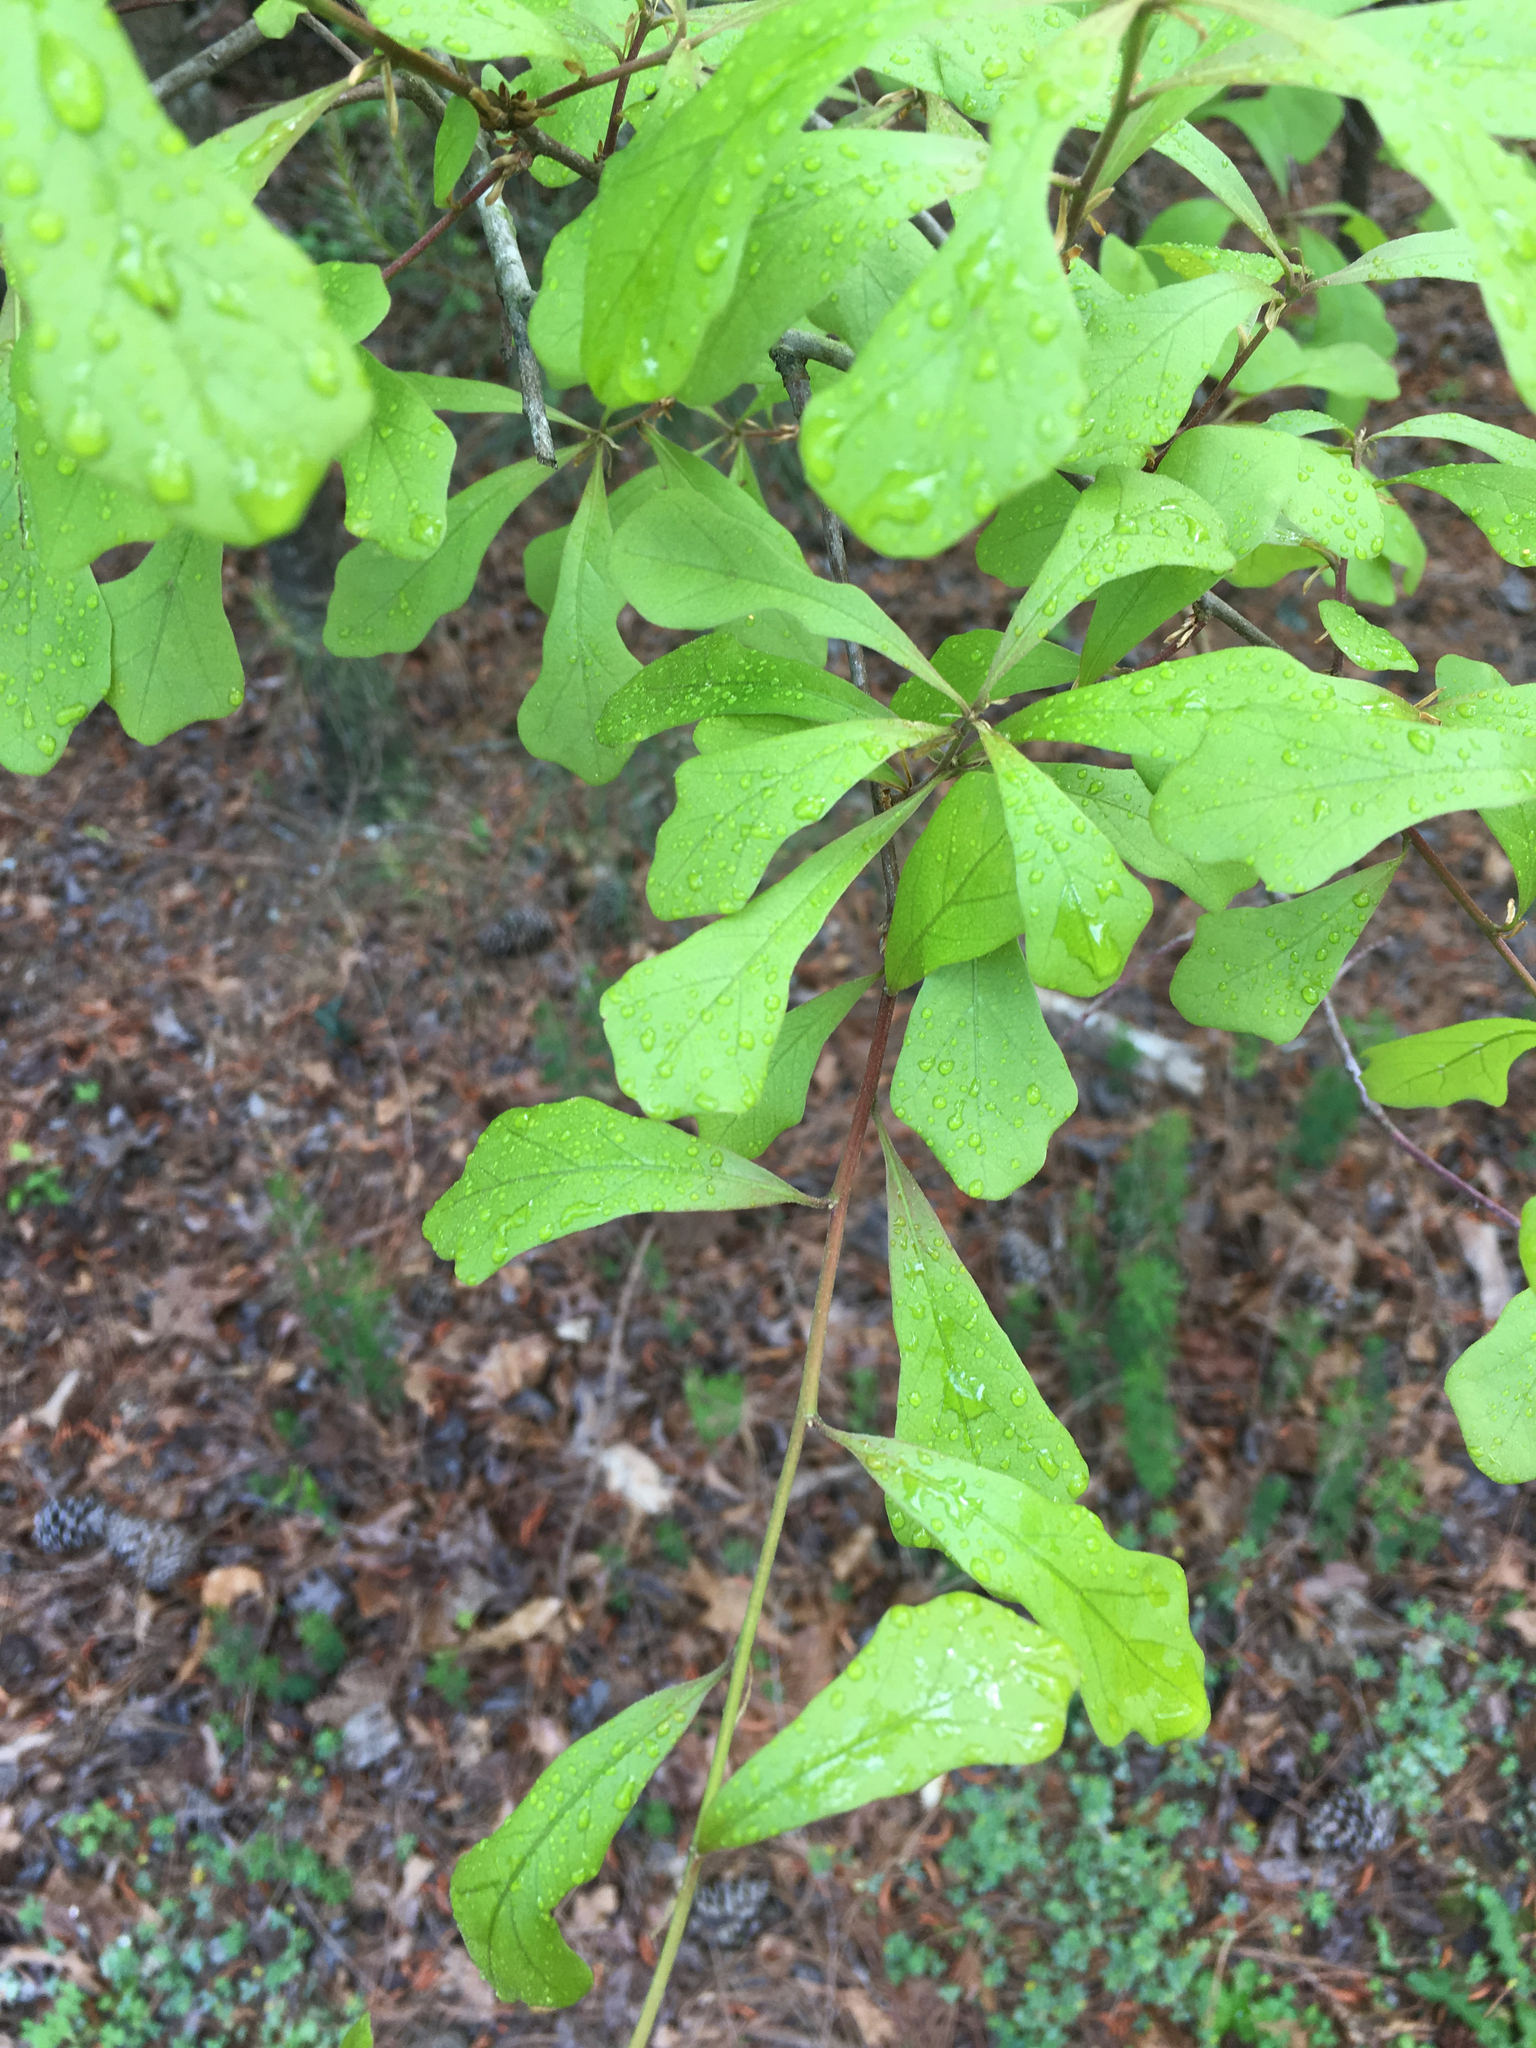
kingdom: Plantae
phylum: Tracheophyta
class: Magnoliopsida
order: Fagales
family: Fagaceae
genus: Quercus
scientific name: Quercus nigra
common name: Water oak
